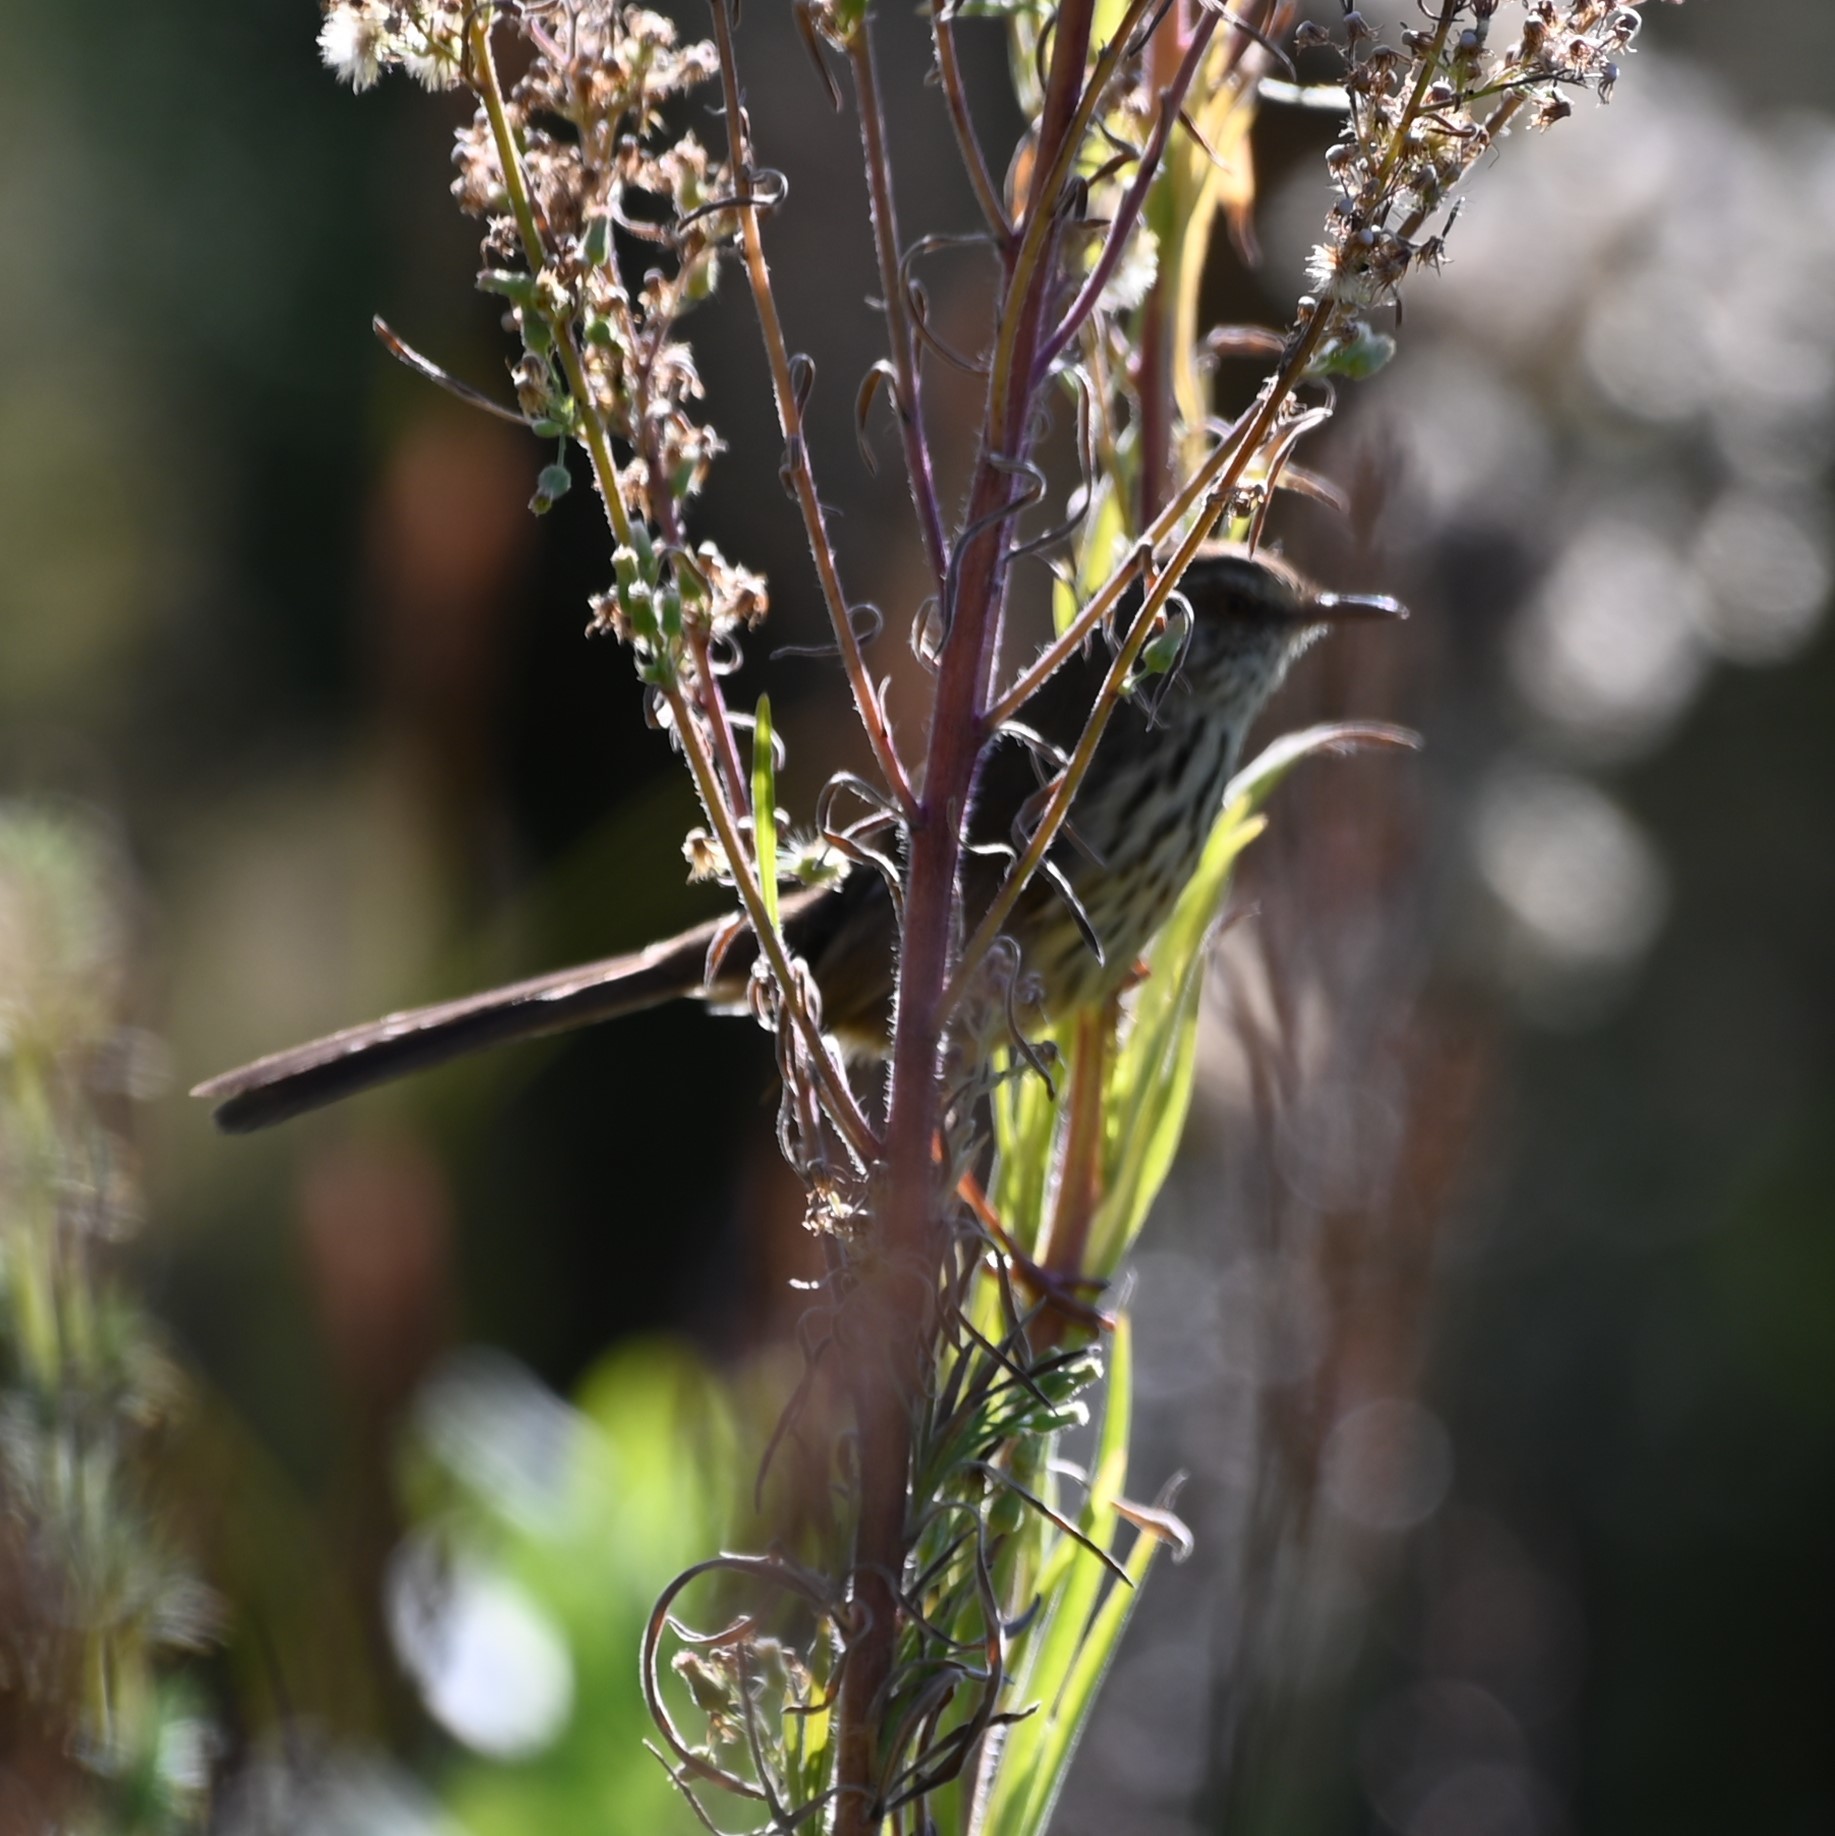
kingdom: Animalia
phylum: Chordata
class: Aves
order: Passeriformes
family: Cisticolidae
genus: Prinia
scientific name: Prinia maculosa
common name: Karoo prinia
